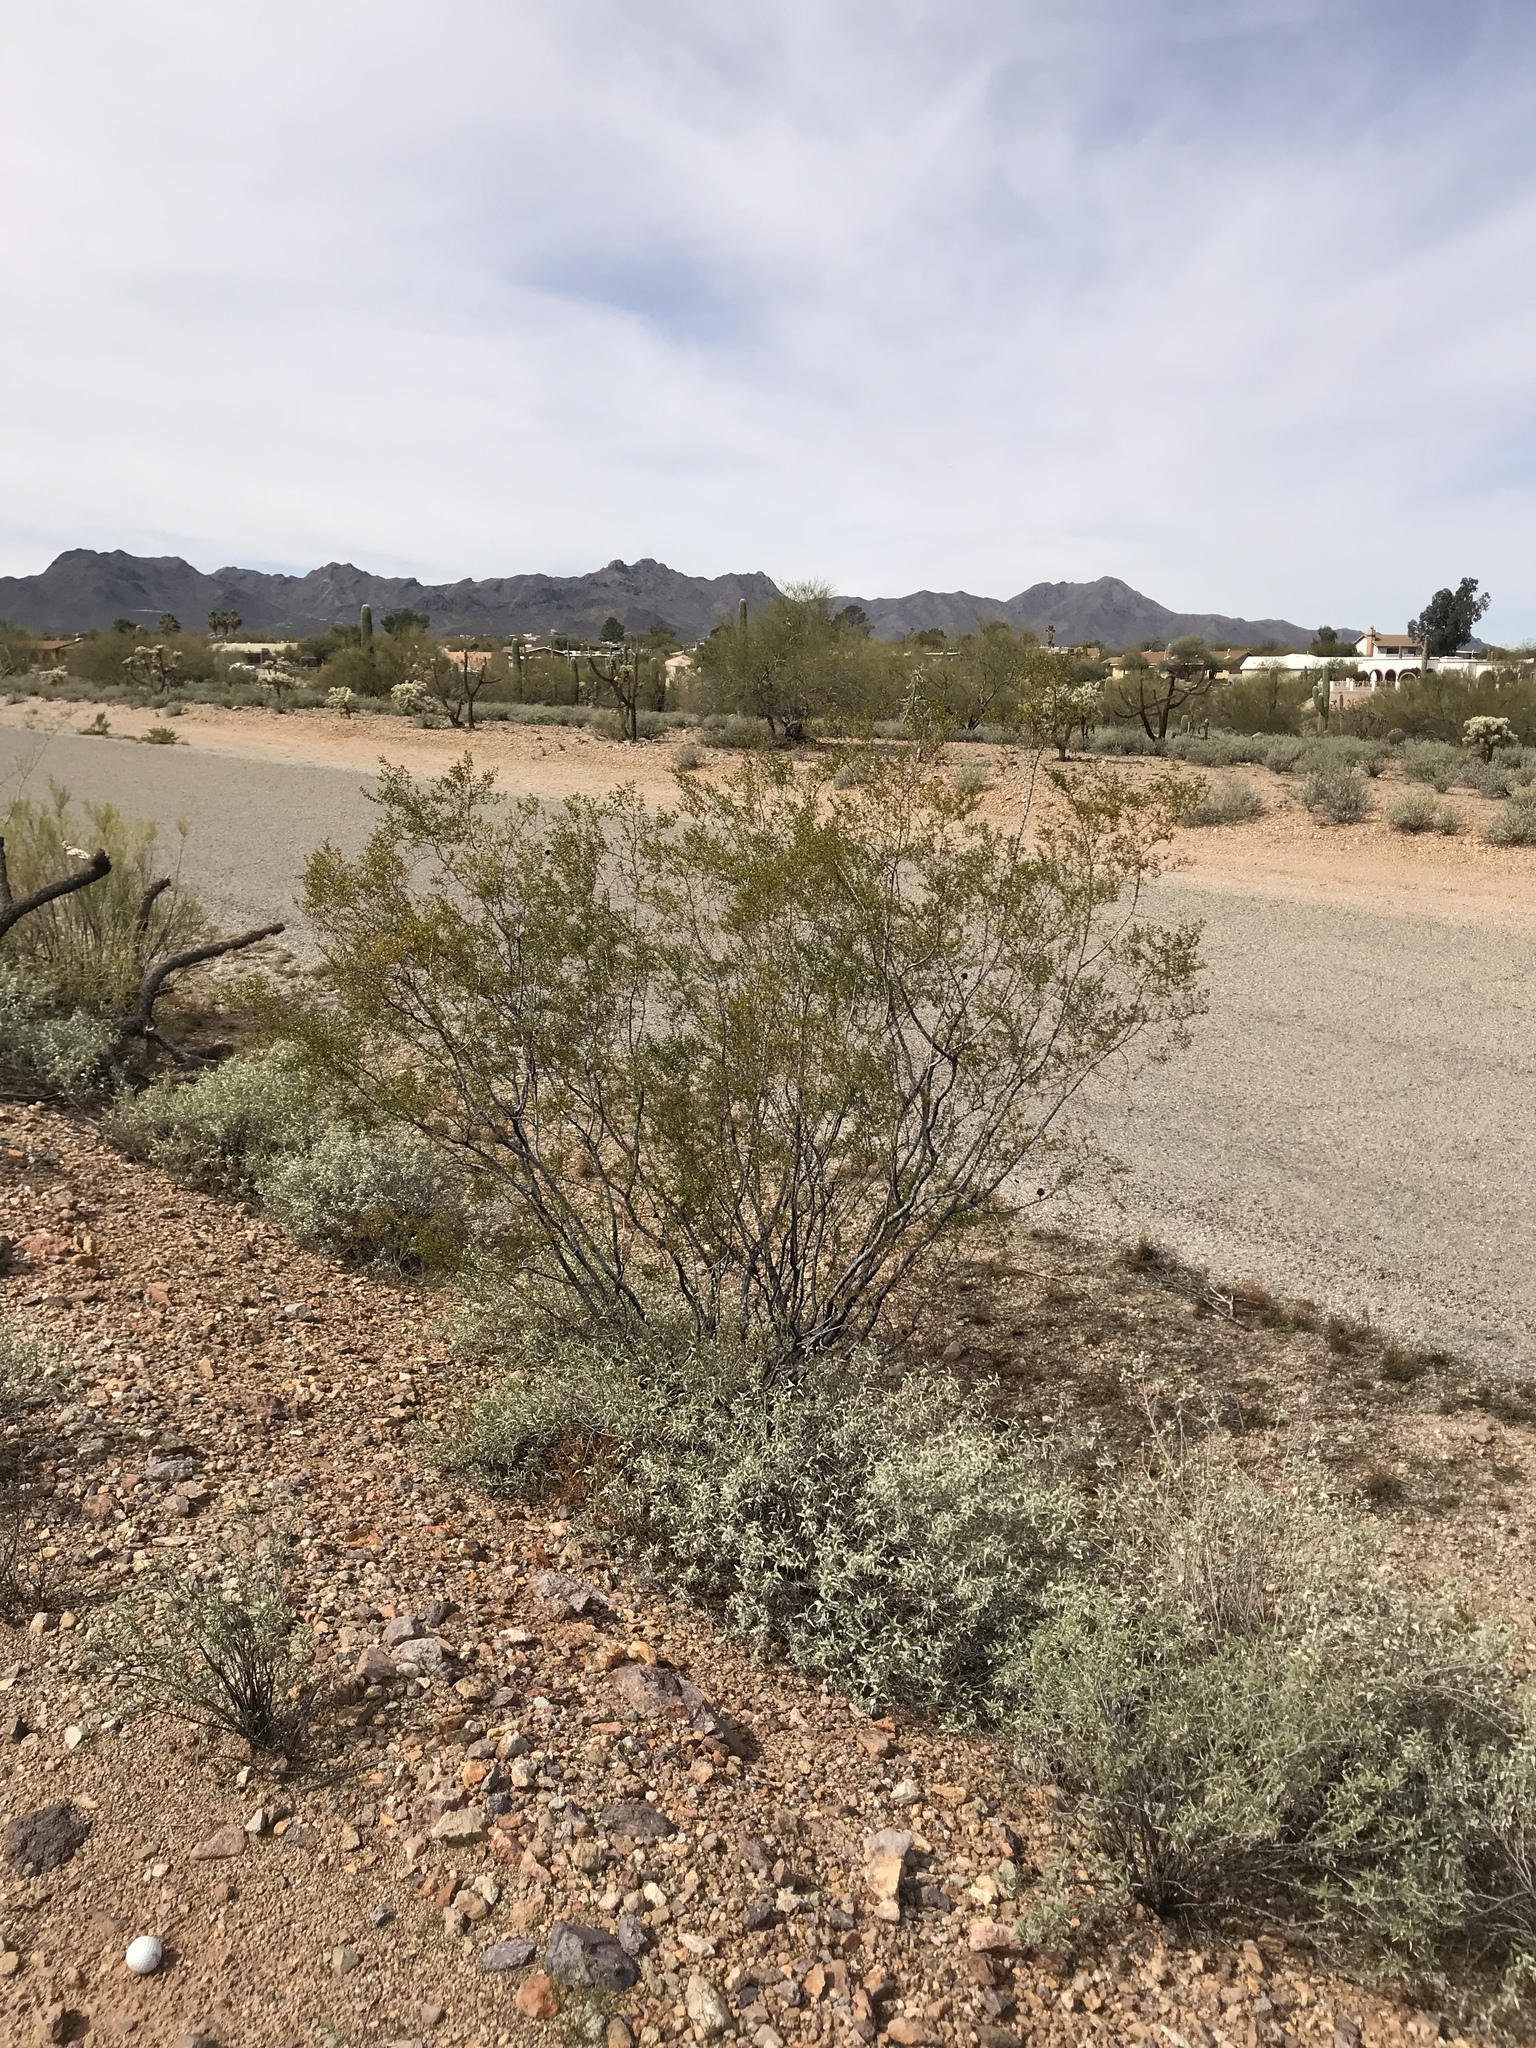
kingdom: Plantae
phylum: Tracheophyta
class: Magnoliopsida
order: Zygophyllales
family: Zygophyllaceae
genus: Larrea
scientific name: Larrea tridentata
